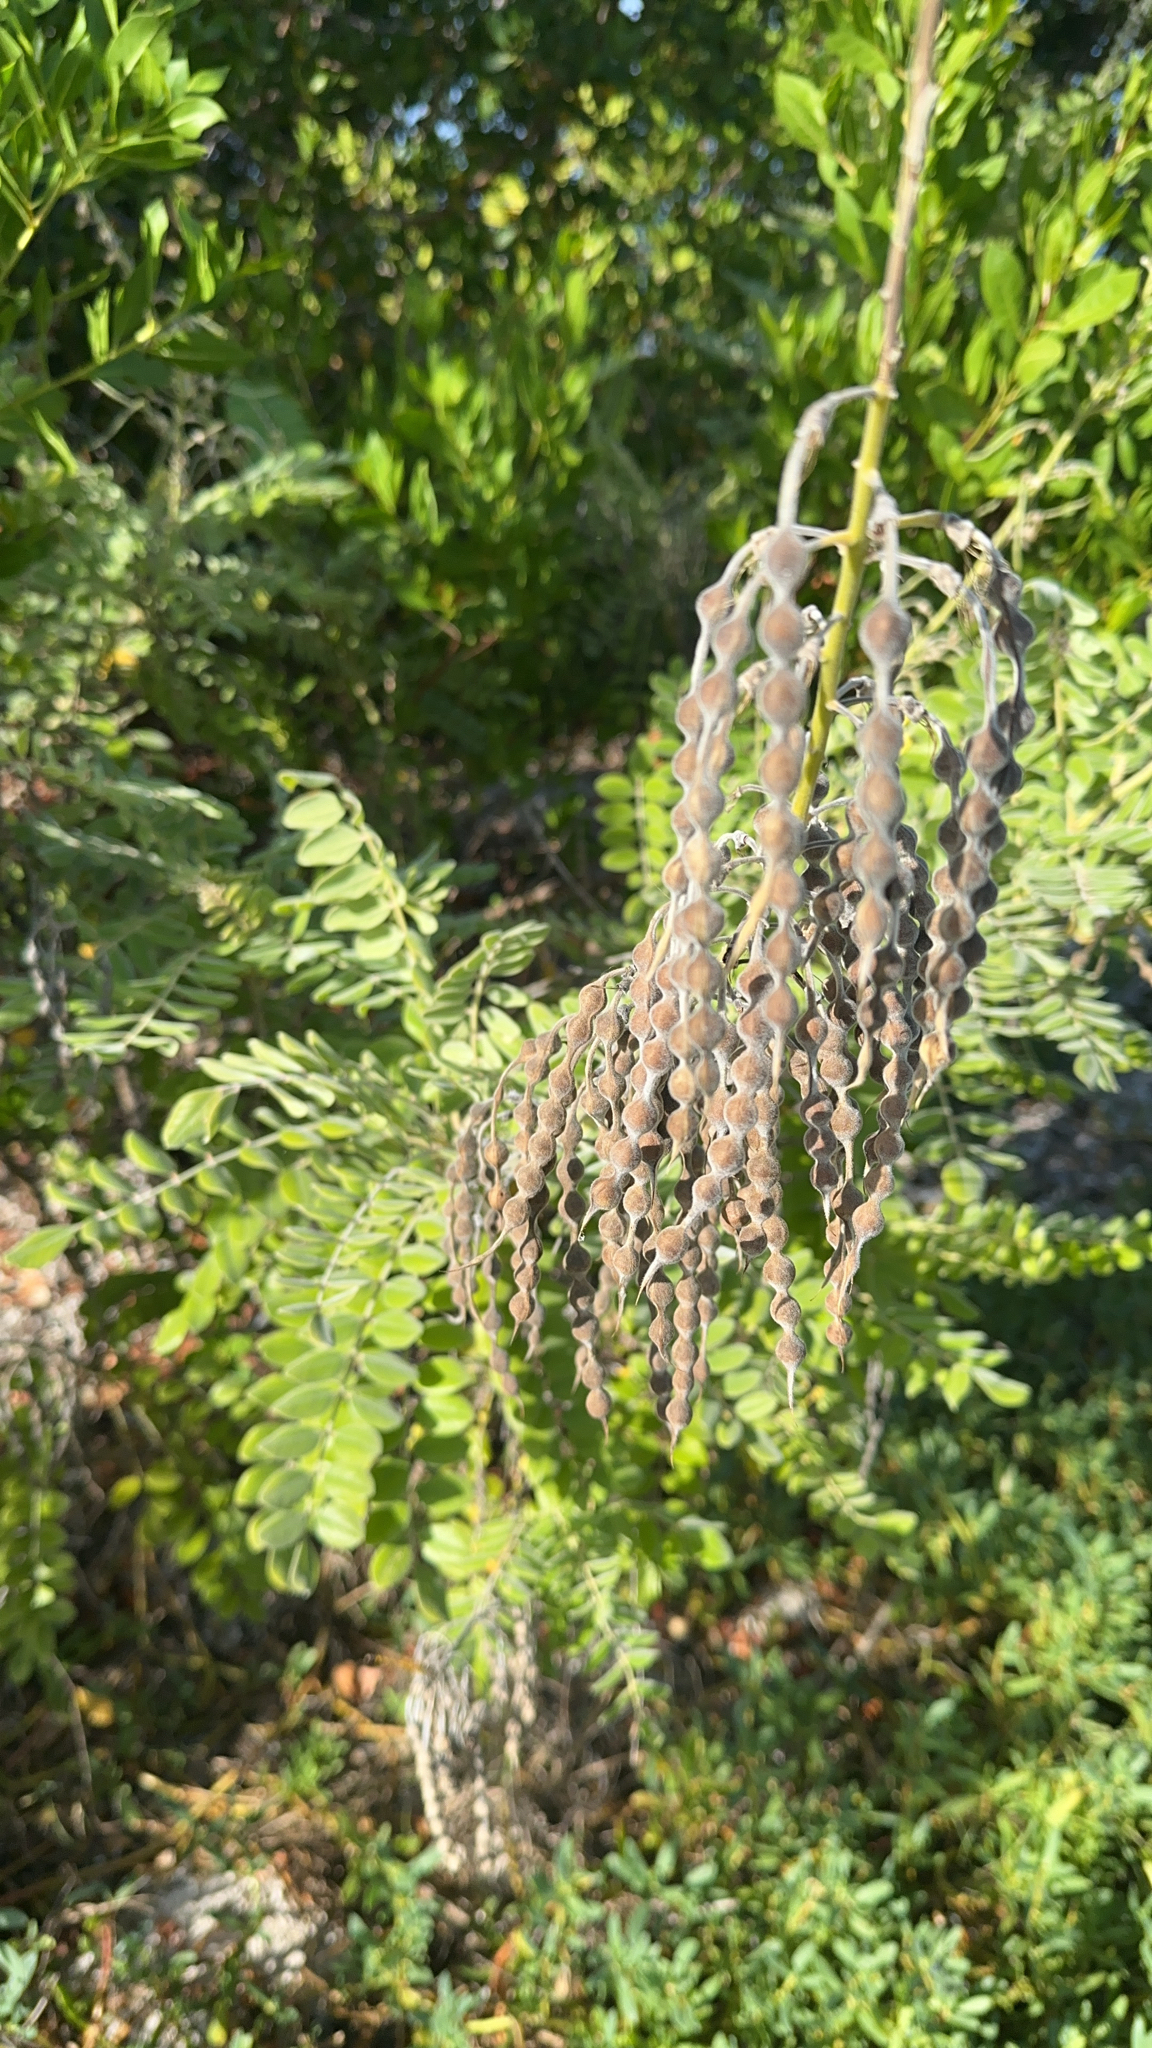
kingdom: Plantae
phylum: Tracheophyta
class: Magnoliopsida
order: Fabales
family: Fabaceae
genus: Sophora
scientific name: Sophora tomentosa
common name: Yellow necklacepod
